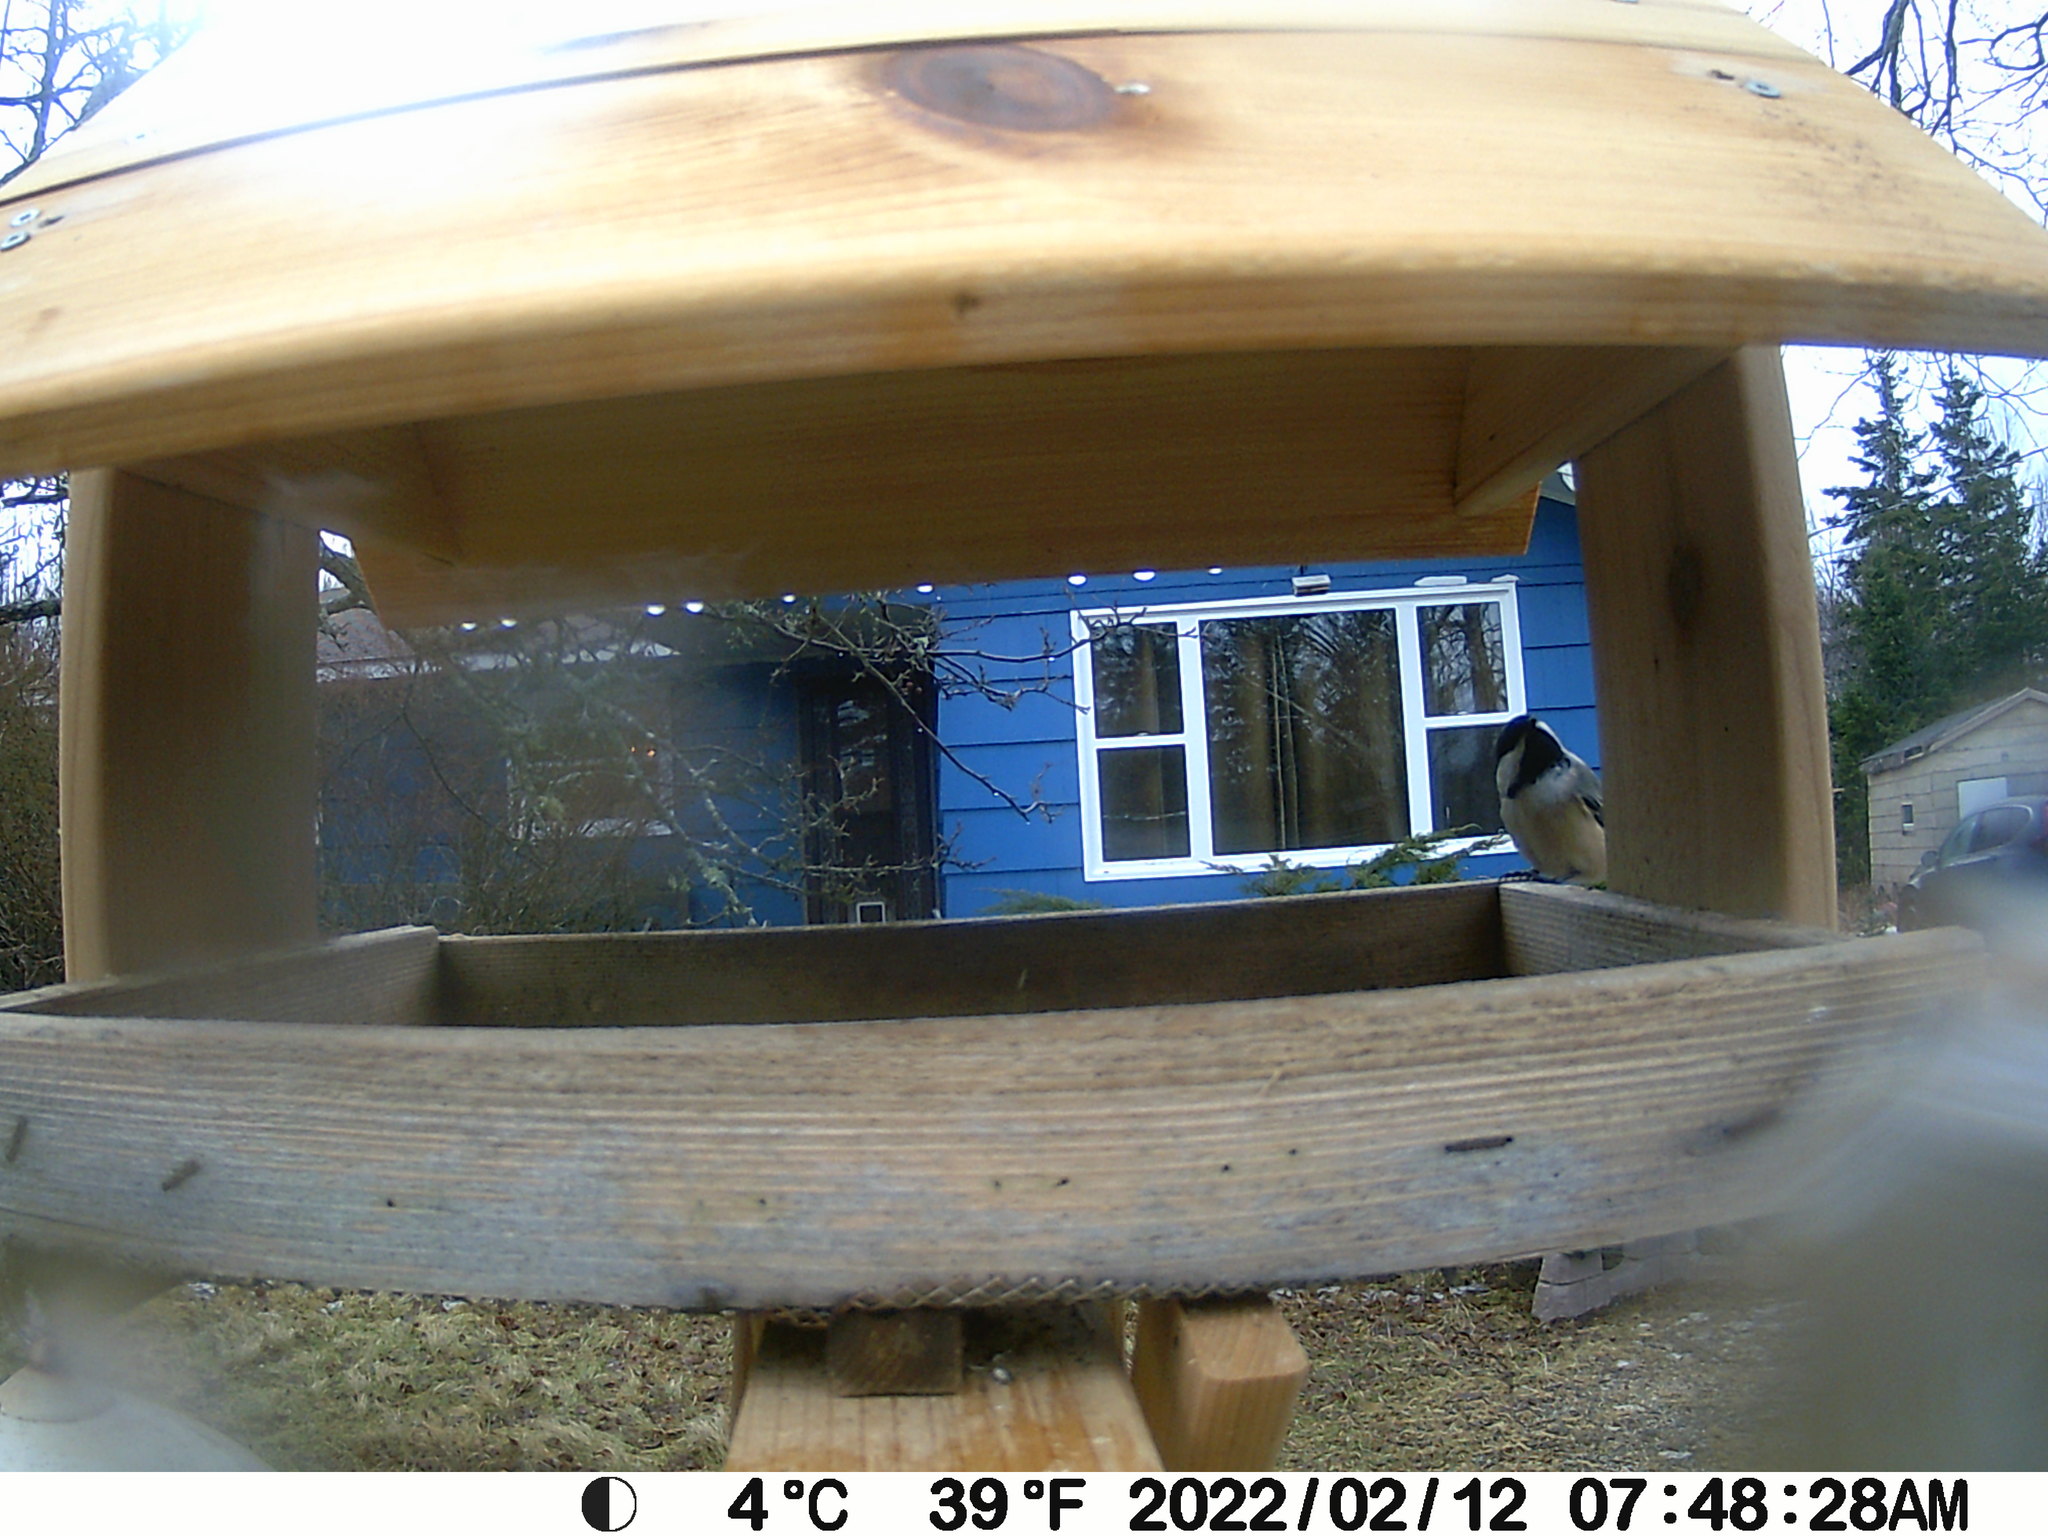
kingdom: Animalia
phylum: Chordata
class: Aves
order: Passeriformes
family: Paridae
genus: Poecile
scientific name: Poecile atricapillus
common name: Black-capped chickadee
